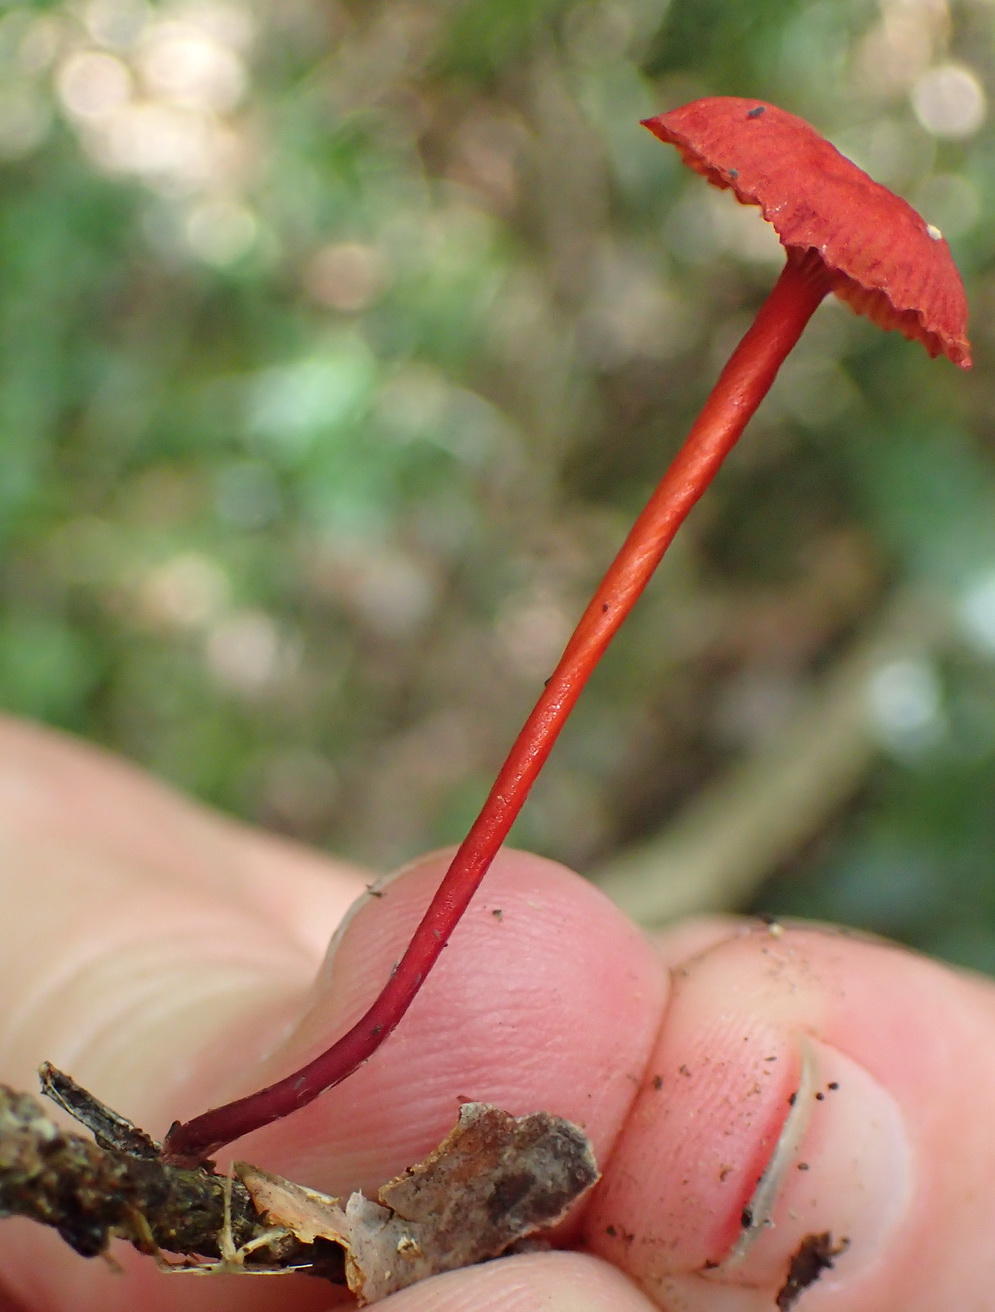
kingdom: Fungi
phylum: Basidiomycota
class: Agaricomycetes
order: Agaricales
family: Mycenaceae
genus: Cruentomycena
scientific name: Cruentomycena viscidocruenta
